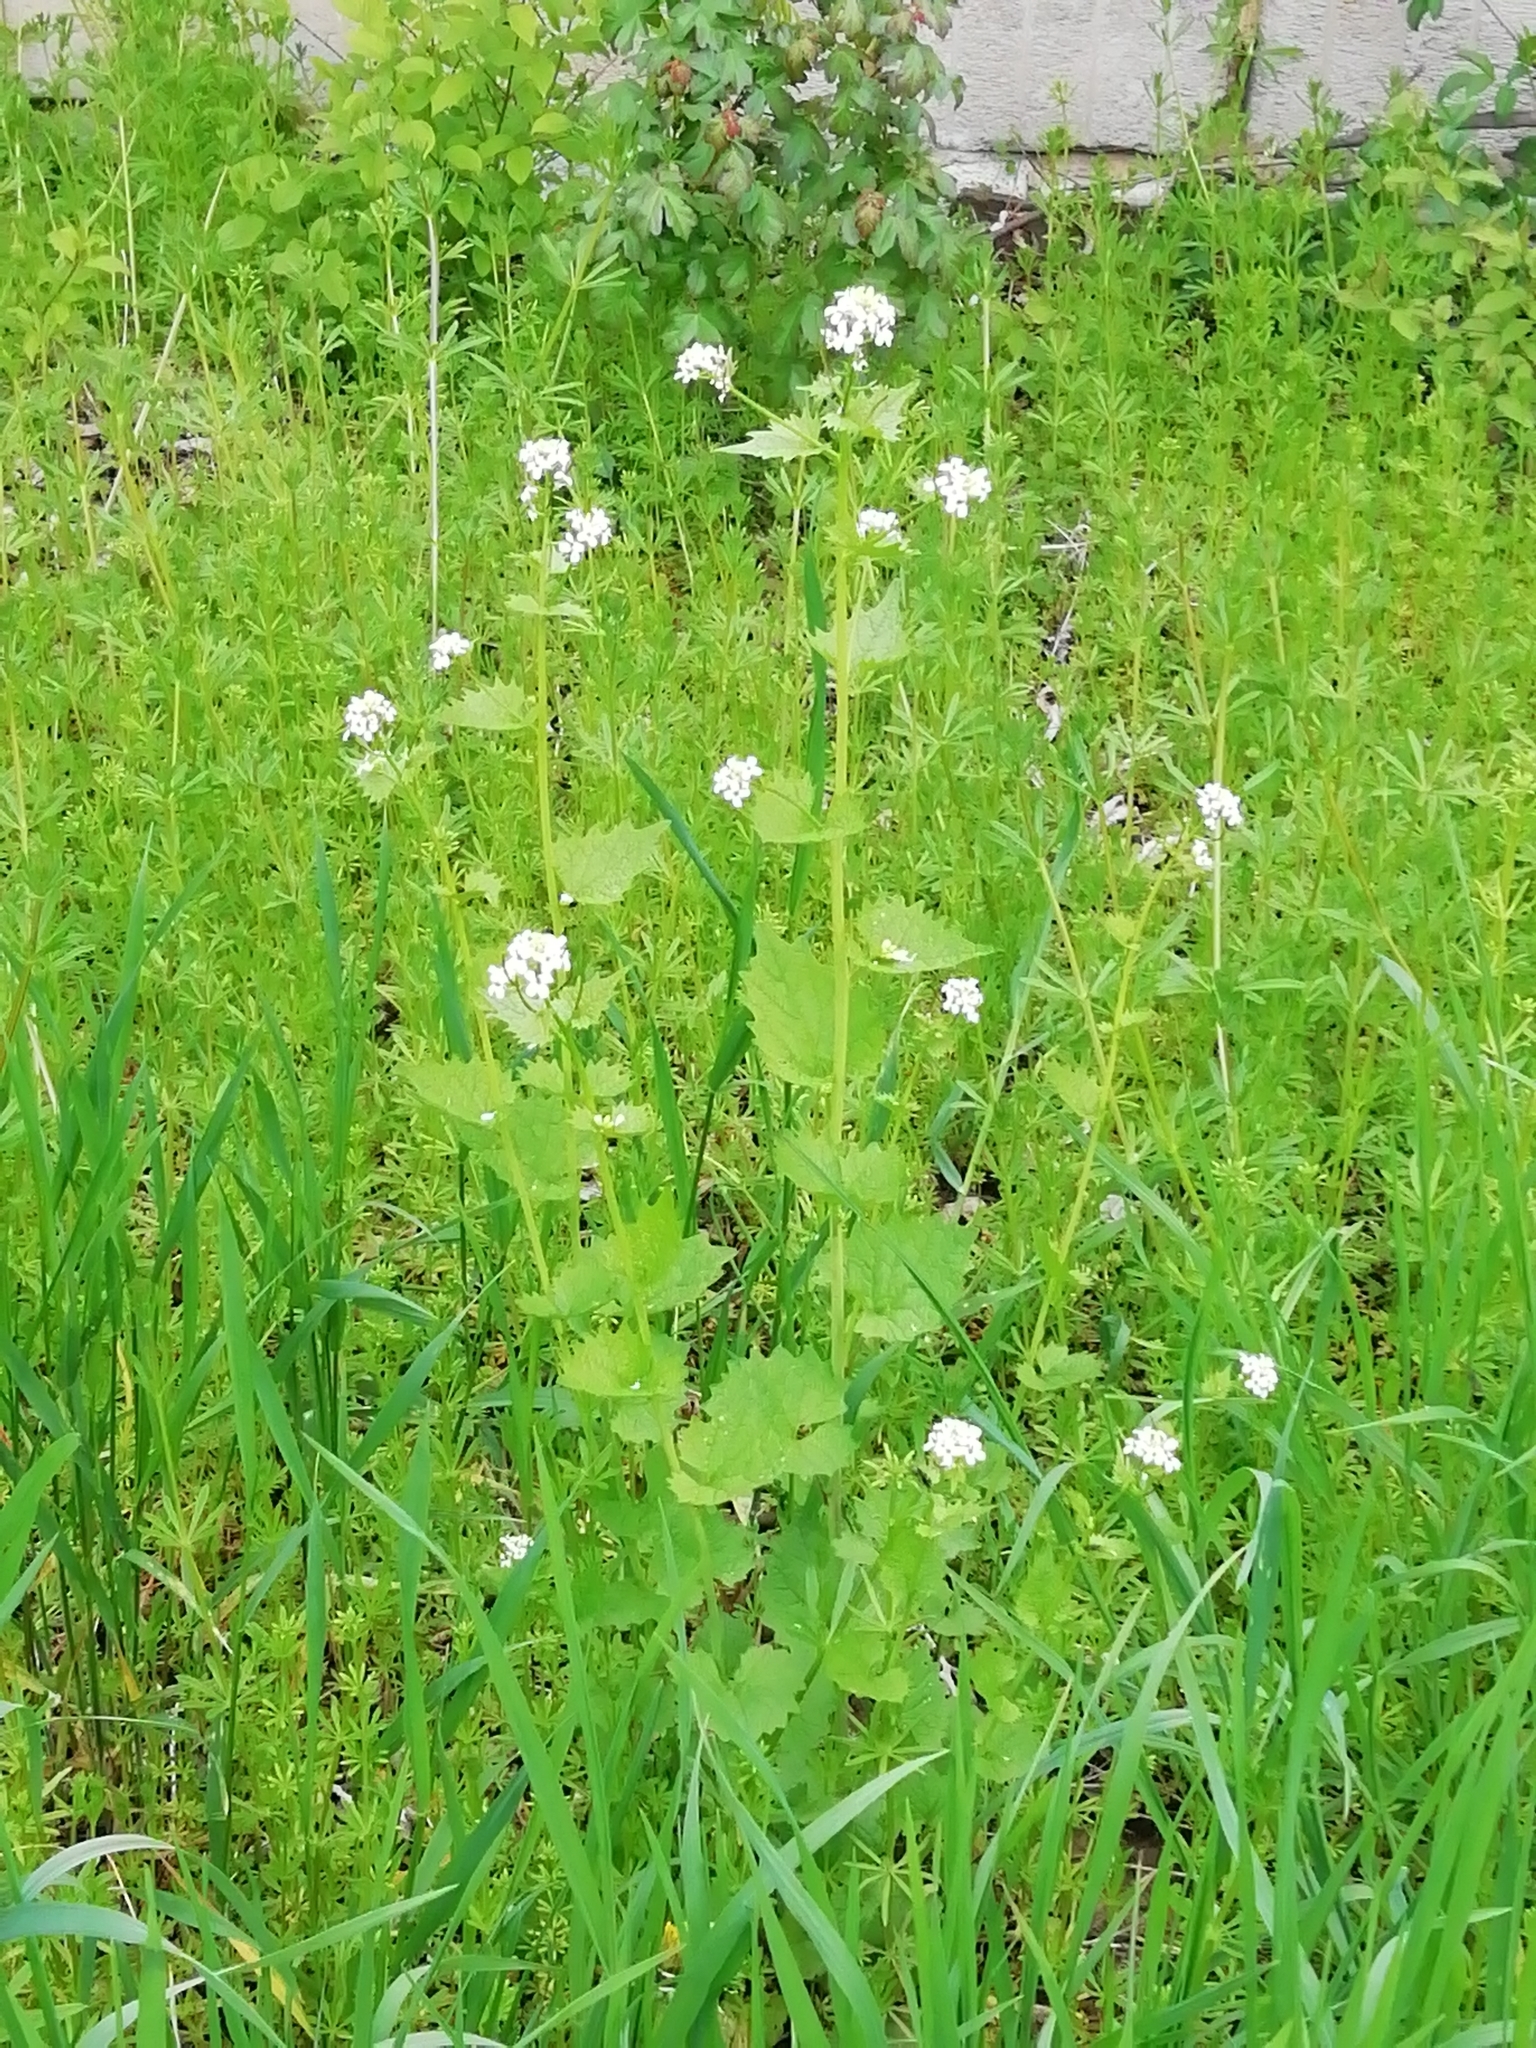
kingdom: Plantae
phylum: Tracheophyta
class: Magnoliopsida
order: Brassicales
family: Brassicaceae
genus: Alliaria
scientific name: Alliaria petiolata
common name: Garlic mustard
